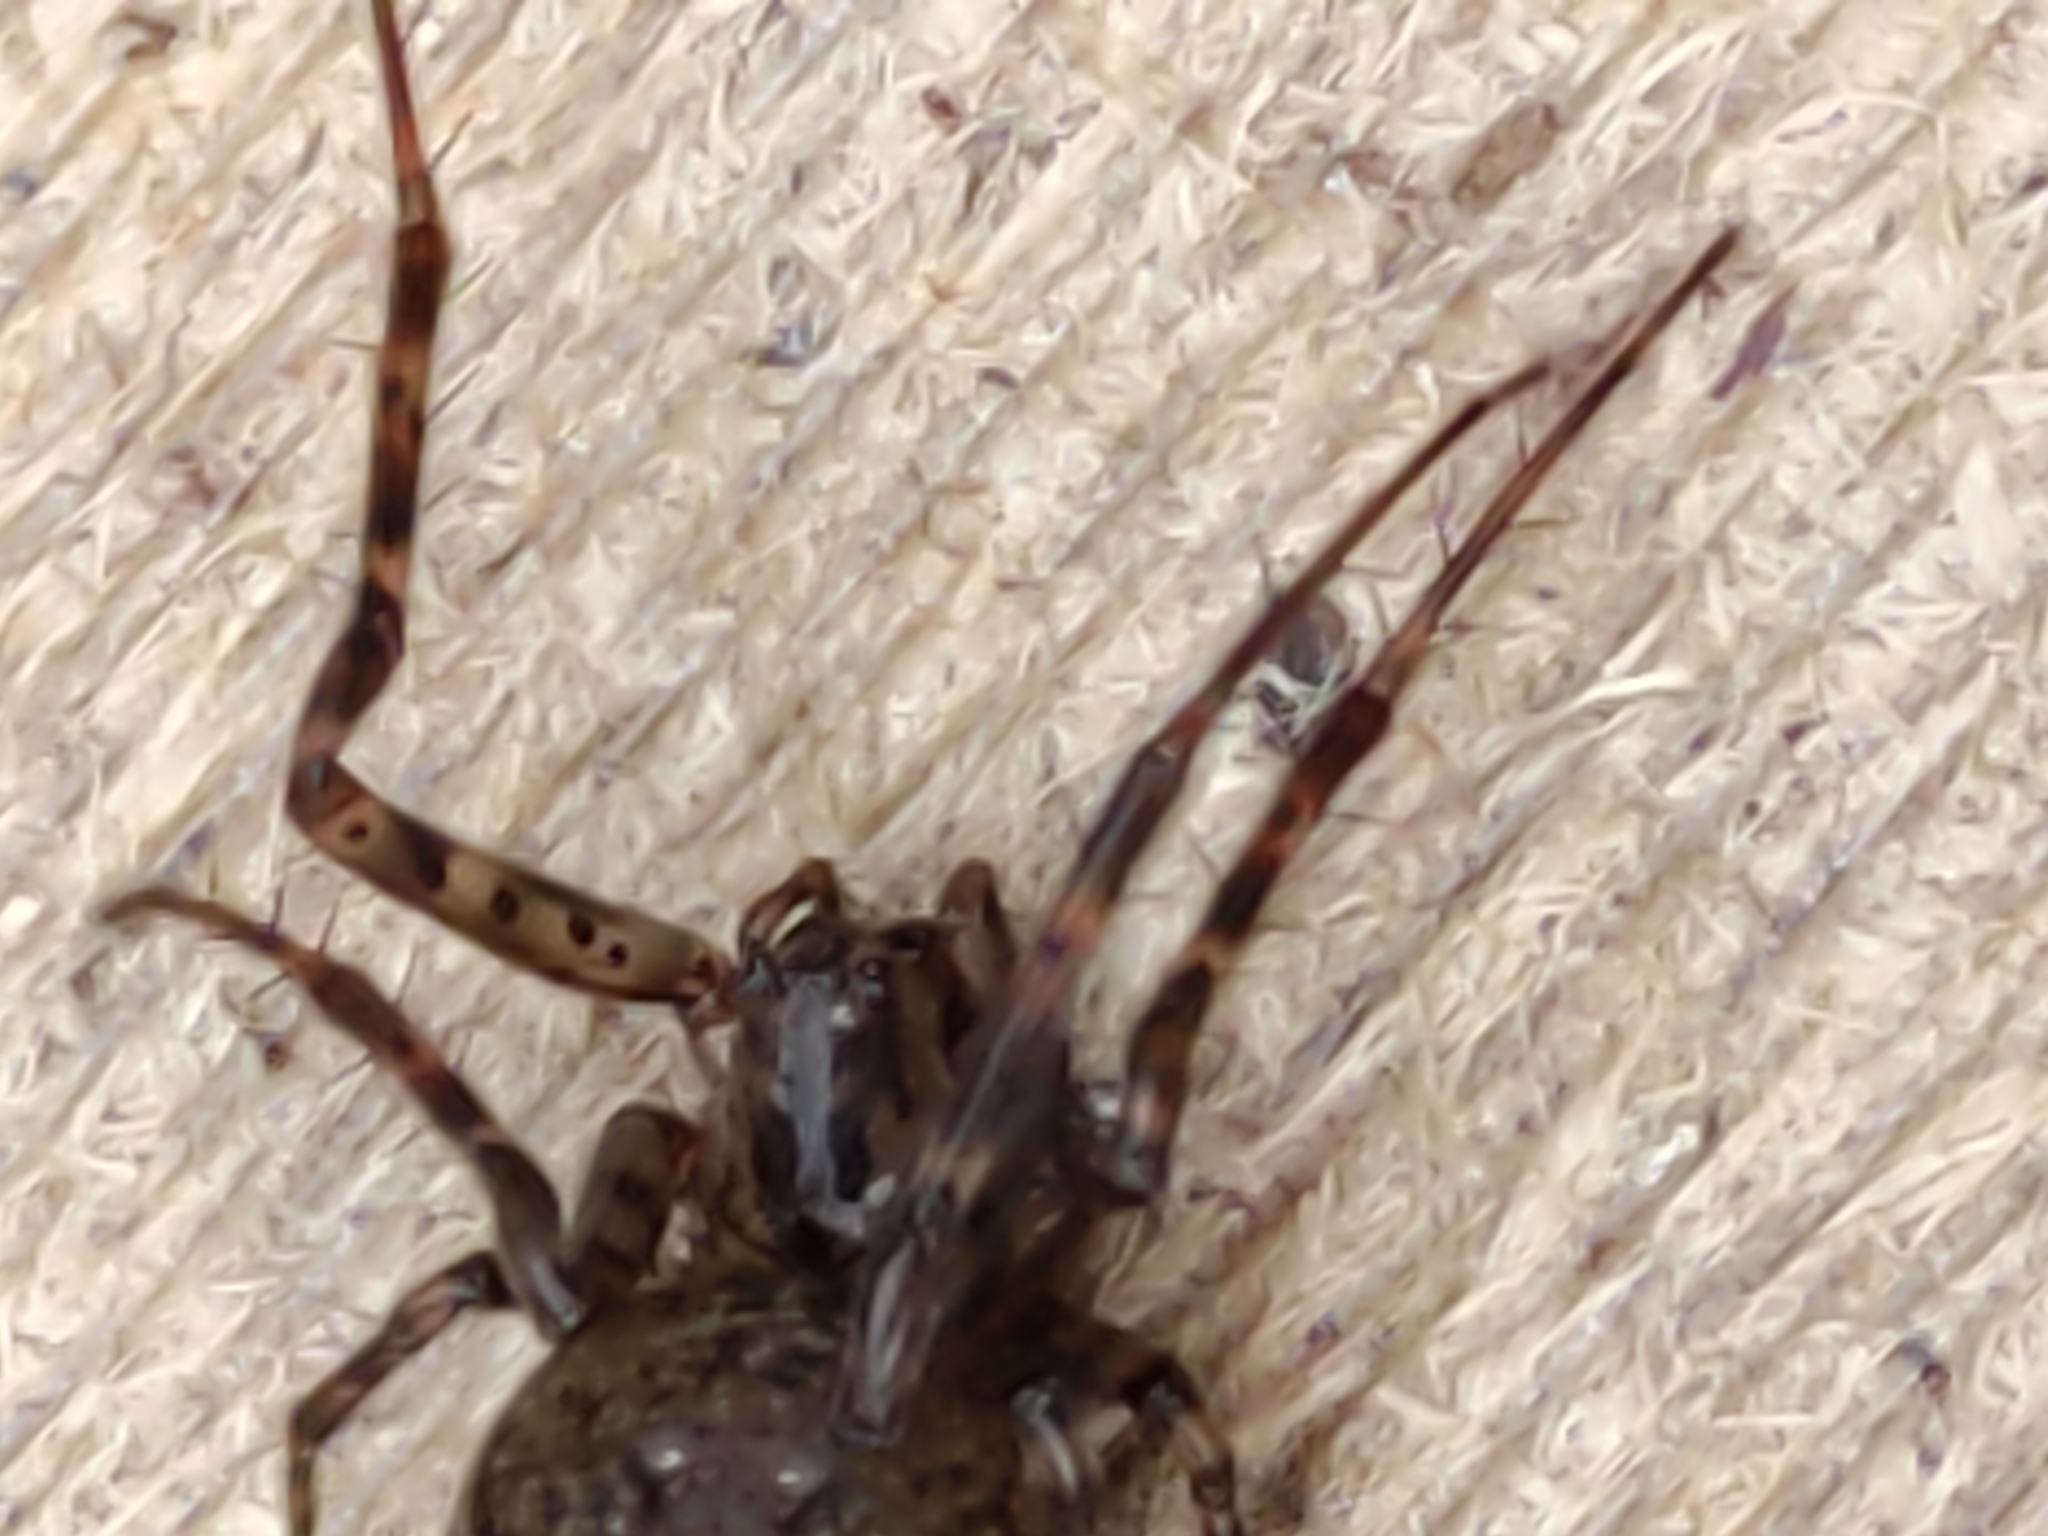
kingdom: Animalia
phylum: Arthropoda
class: Arachnida
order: Araneae
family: Tetragnathidae
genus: Metellina
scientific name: Metellina merianae
